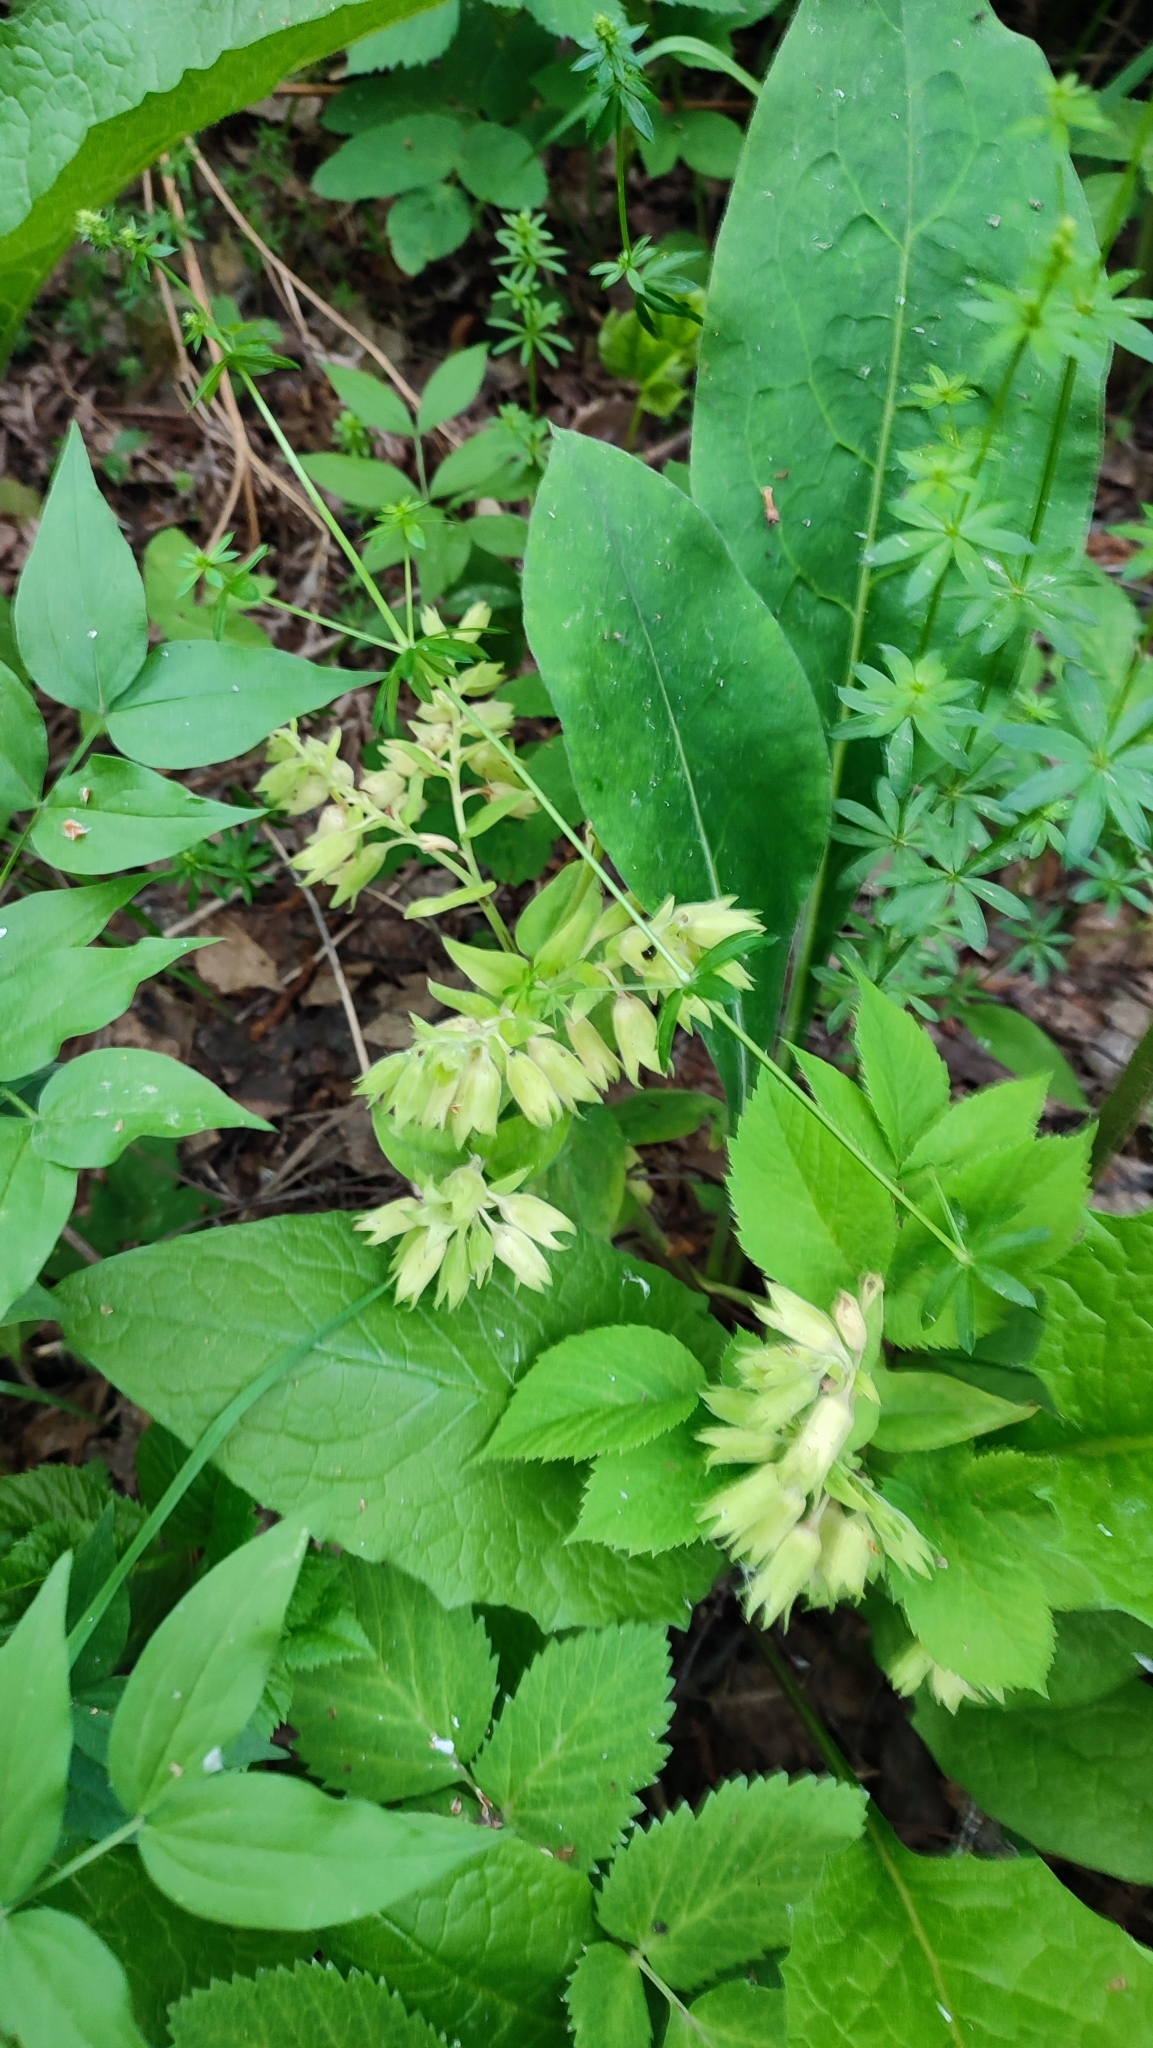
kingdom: Plantae
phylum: Tracheophyta
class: Magnoliopsida
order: Boraginales
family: Boraginaceae
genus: Pulmonaria
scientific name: Pulmonaria mollis
